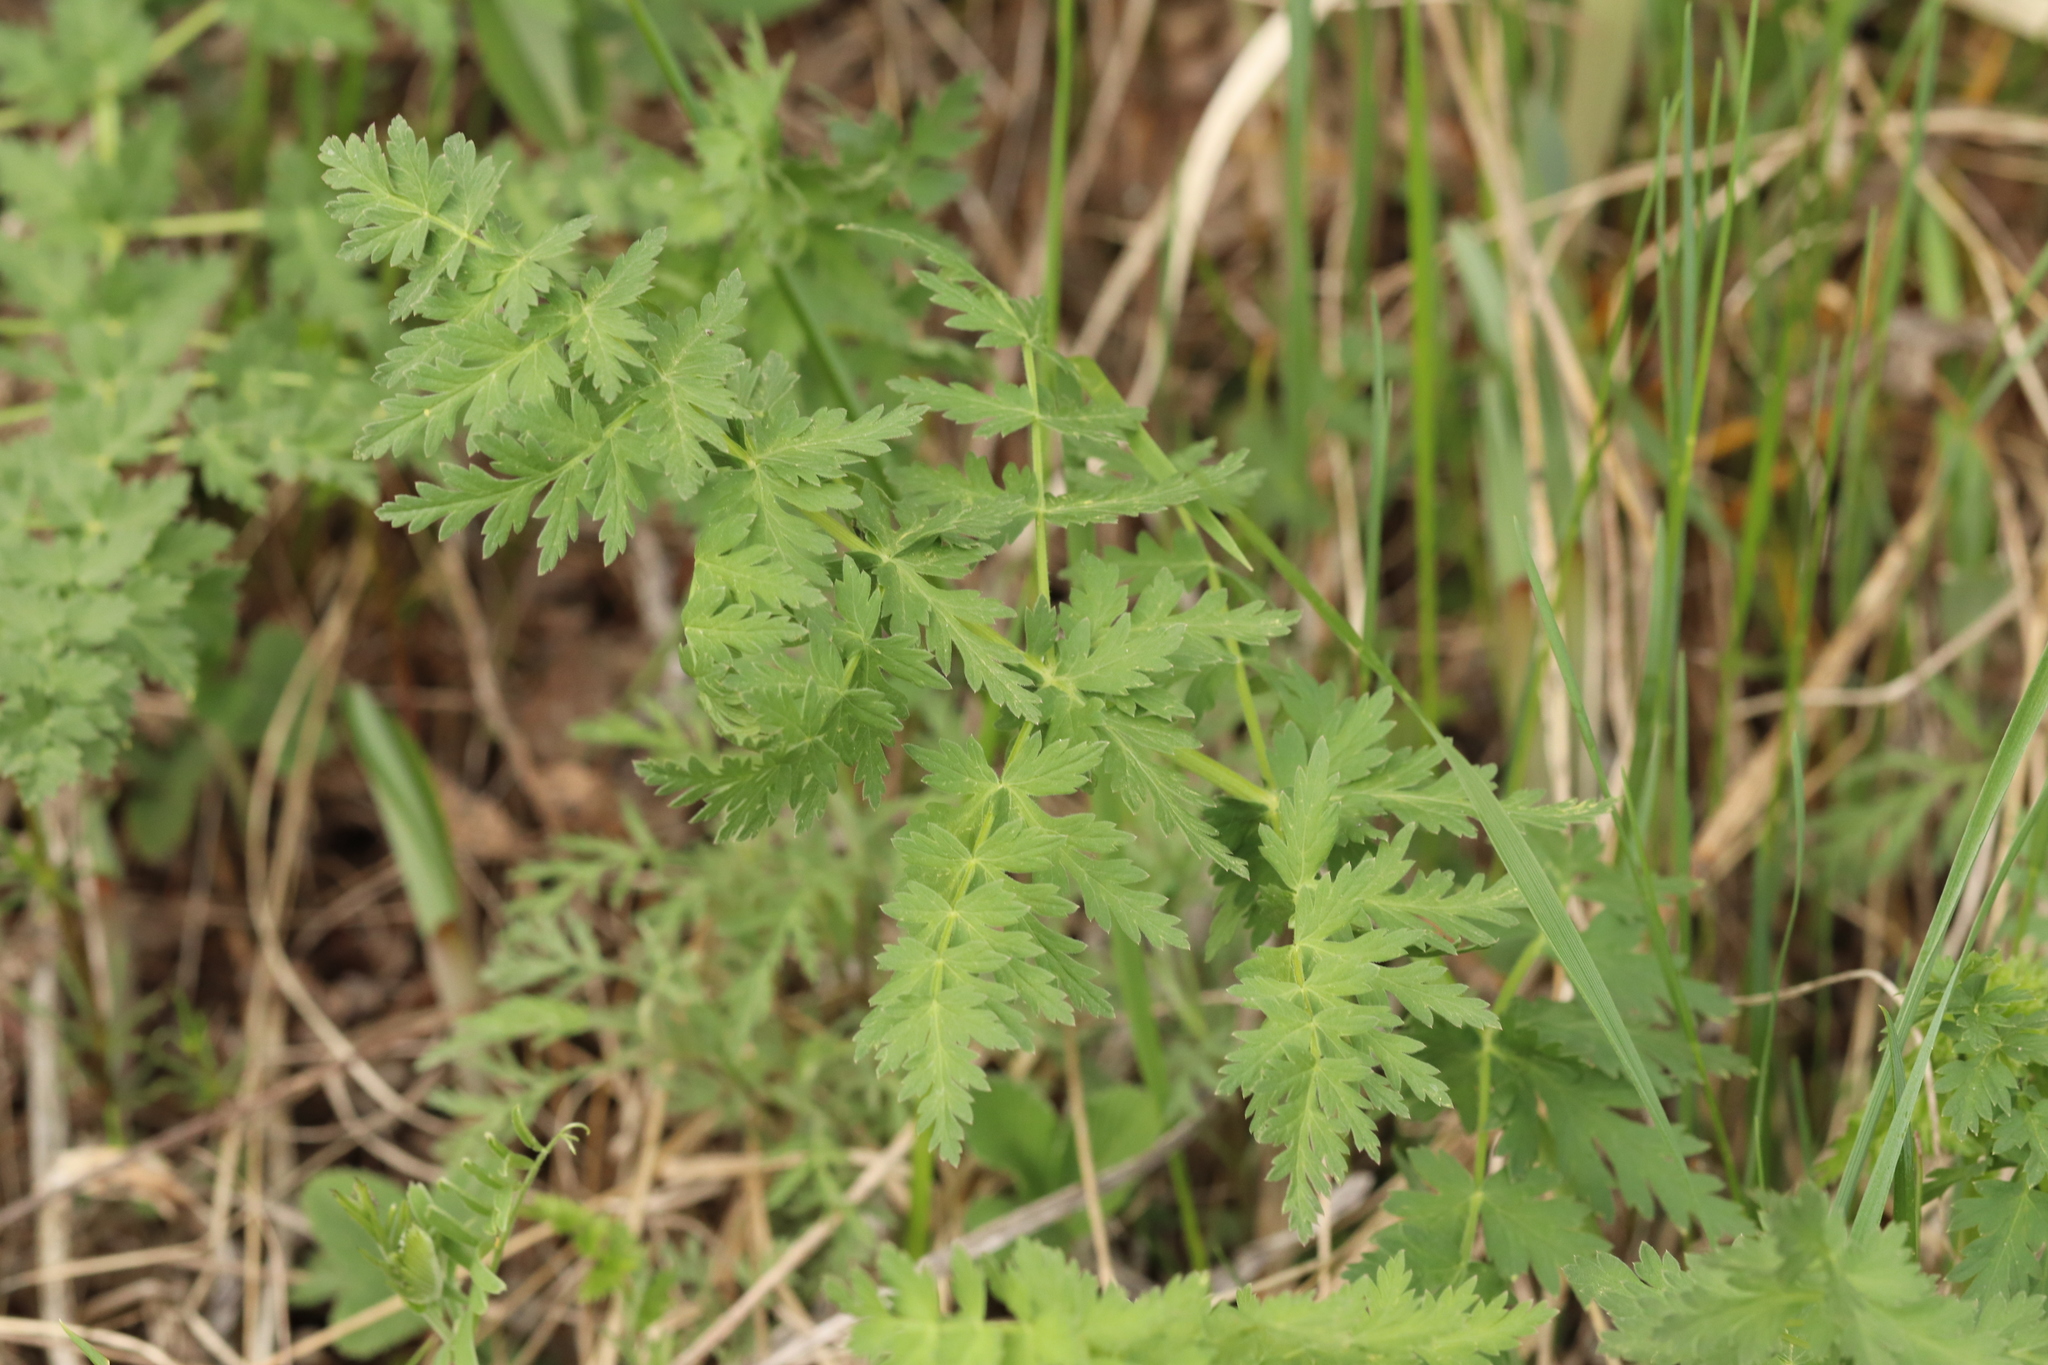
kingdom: Plantae
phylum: Tracheophyta
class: Magnoliopsida
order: Apiales
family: Apiaceae
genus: Seseli
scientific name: Seseli libanotis
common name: Mooncarrot
